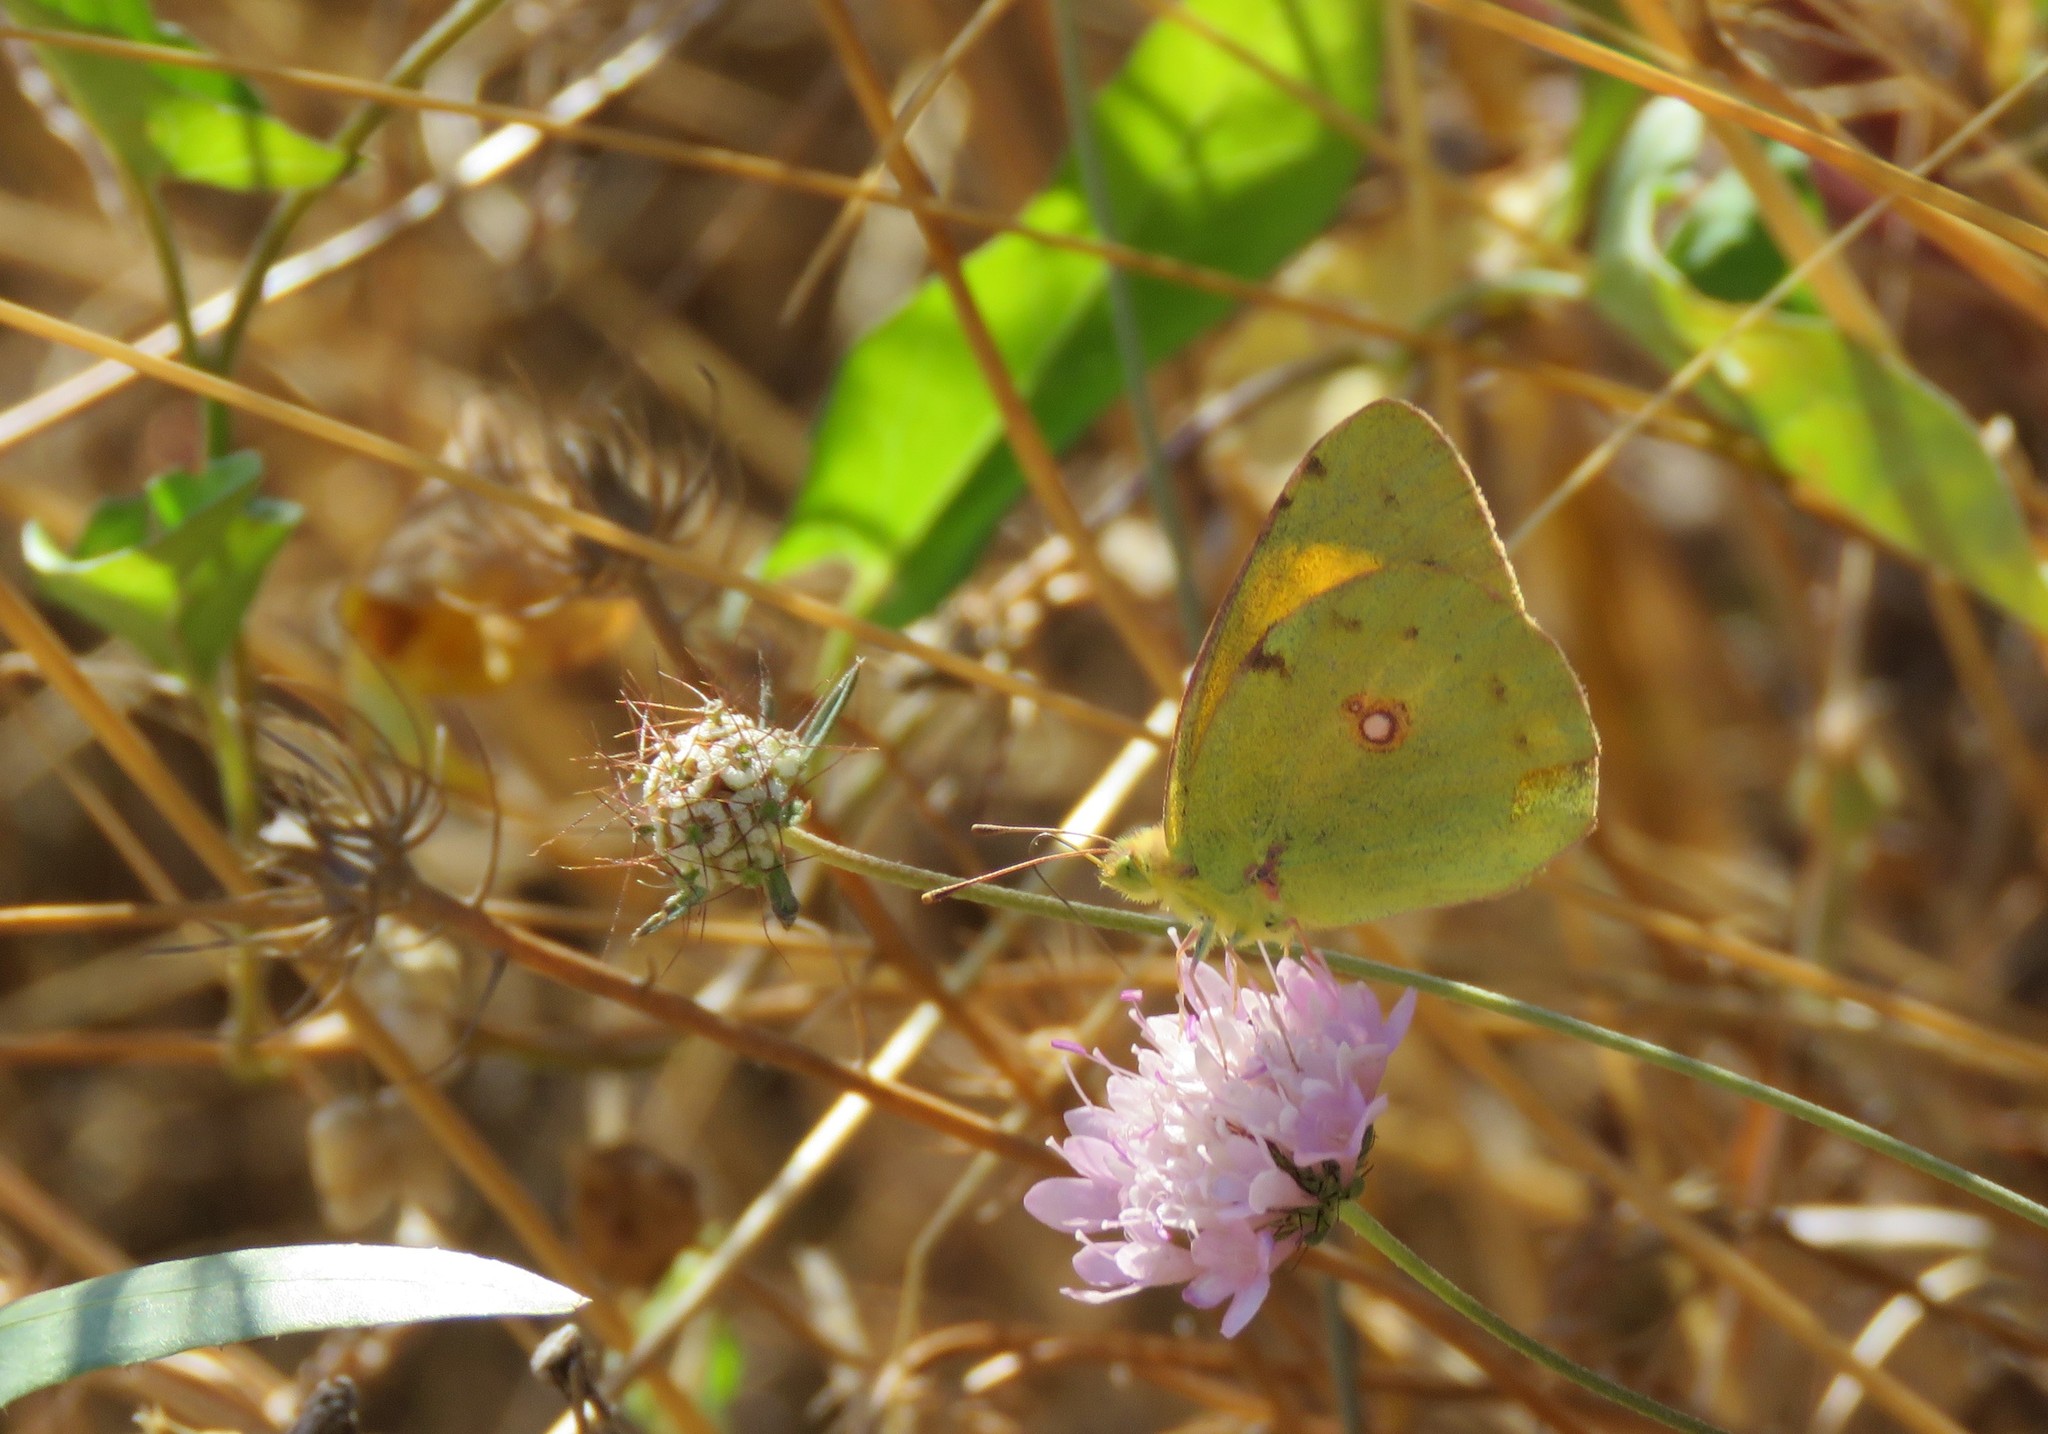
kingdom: Animalia
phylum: Arthropoda
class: Insecta
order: Lepidoptera
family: Pieridae
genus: Colias
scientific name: Colias croceus
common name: Clouded yellow
